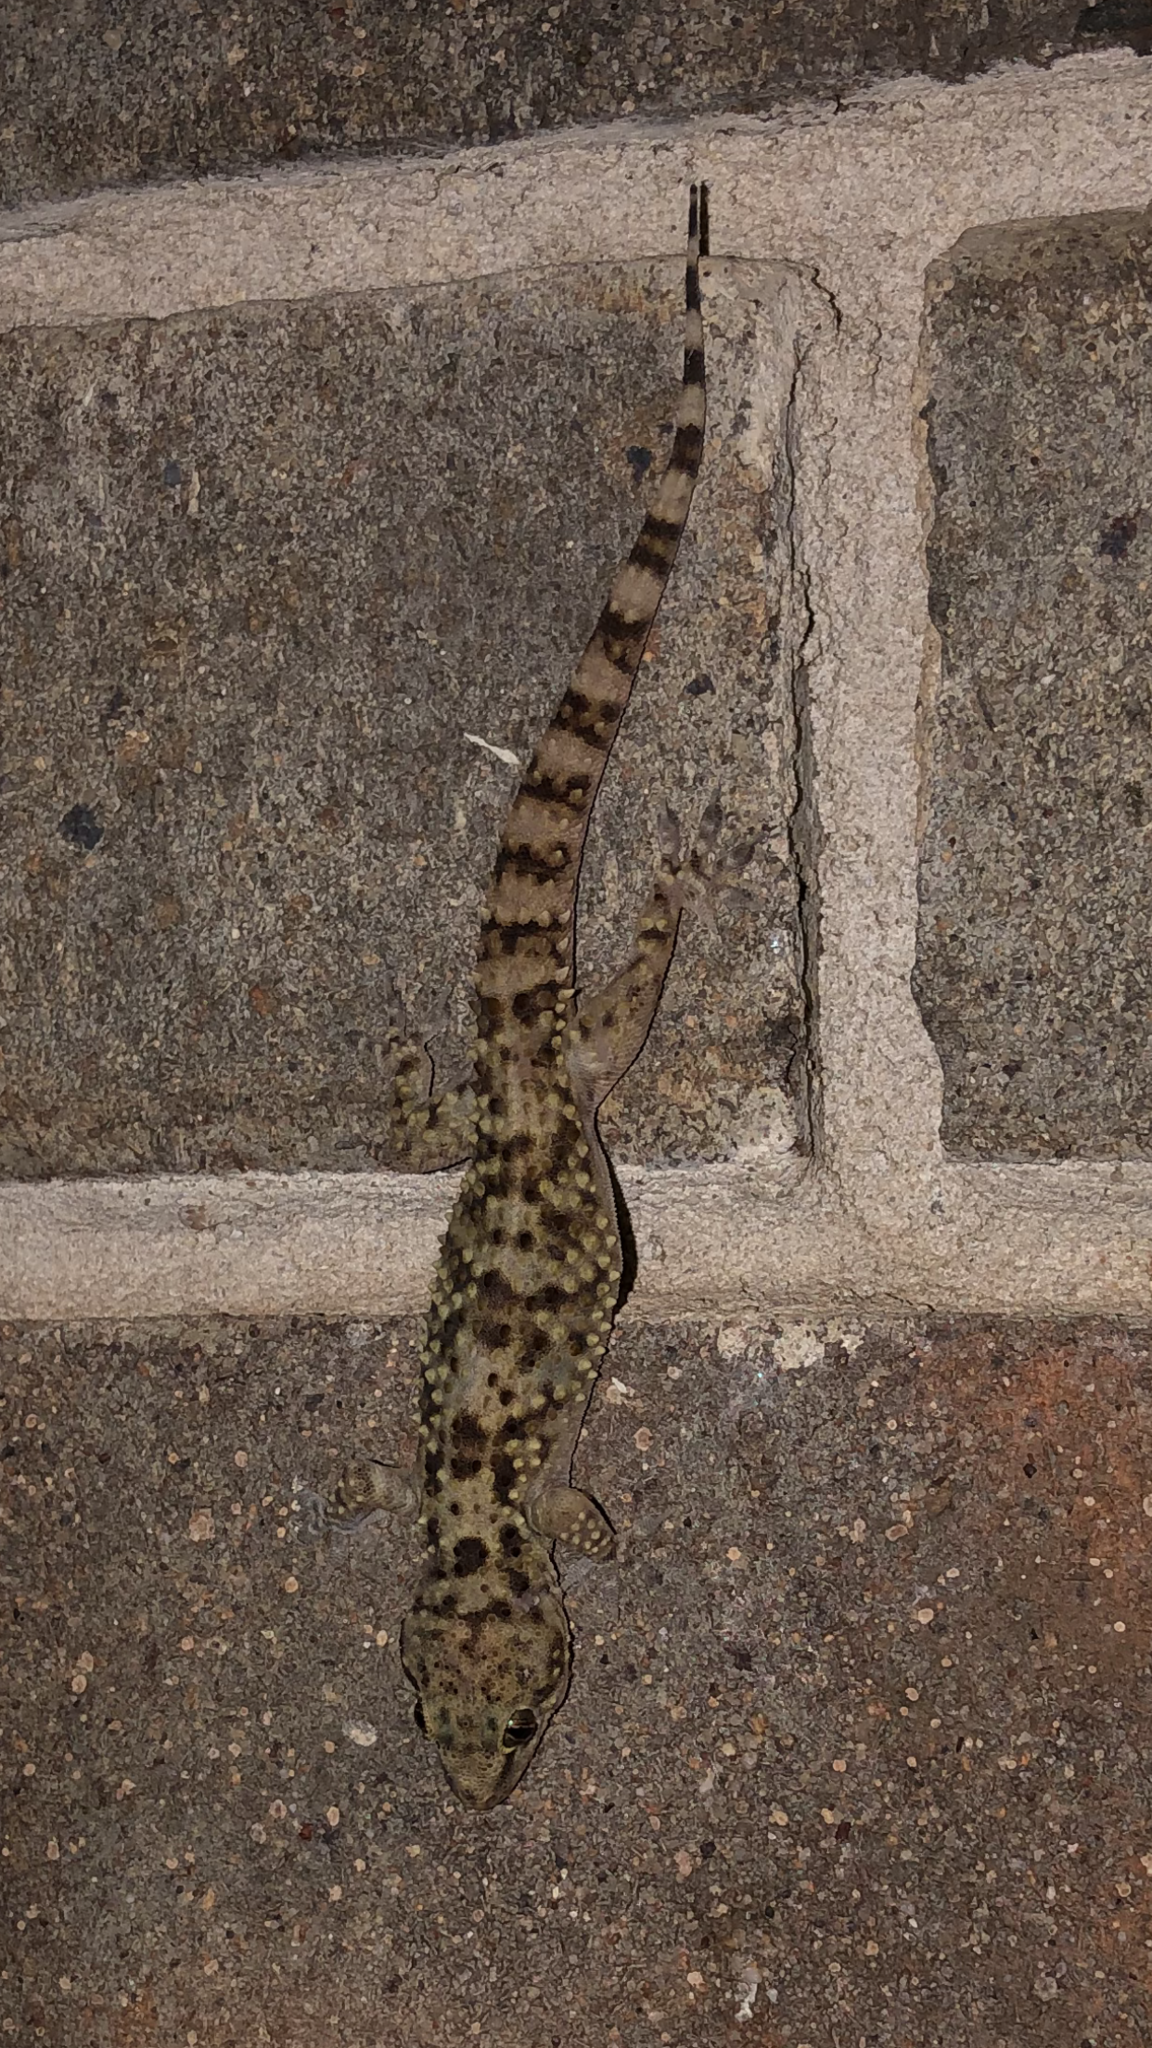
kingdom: Animalia
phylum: Chordata
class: Squamata
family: Gekkonidae
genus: Hemidactylus
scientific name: Hemidactylus turcicus
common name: Turkish gecko
